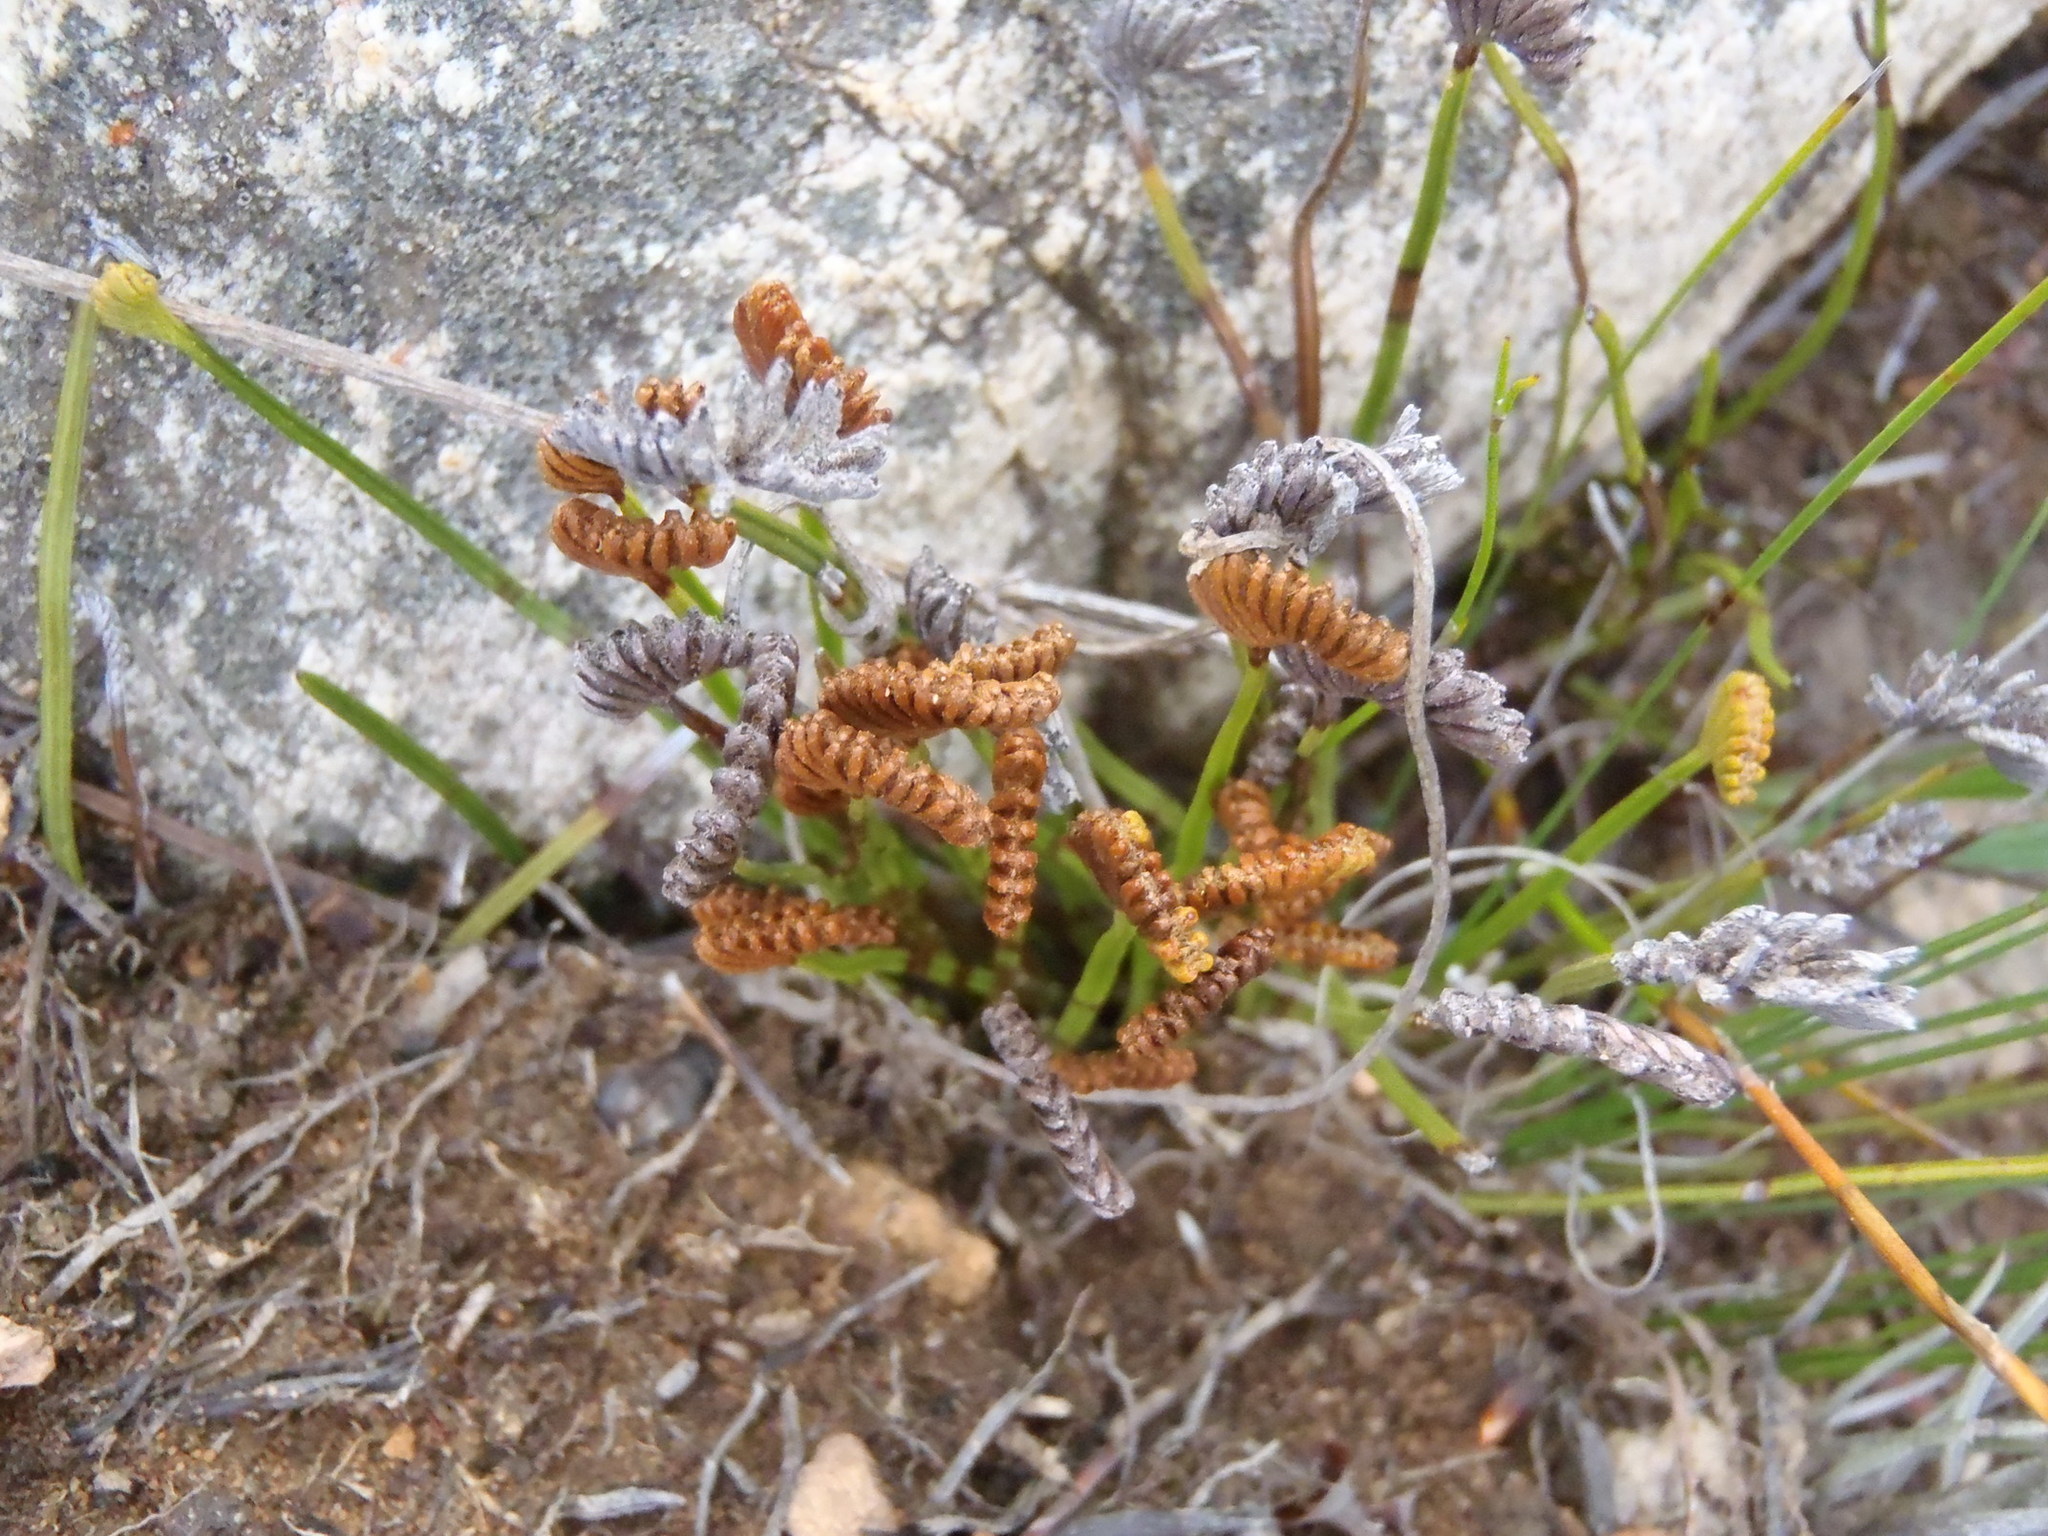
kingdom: Plantae
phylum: Tracheophyta
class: Polypodiopsida
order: Schizaeales
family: Schizaeaceae
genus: Schizaea
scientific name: Schizaea pectinata
